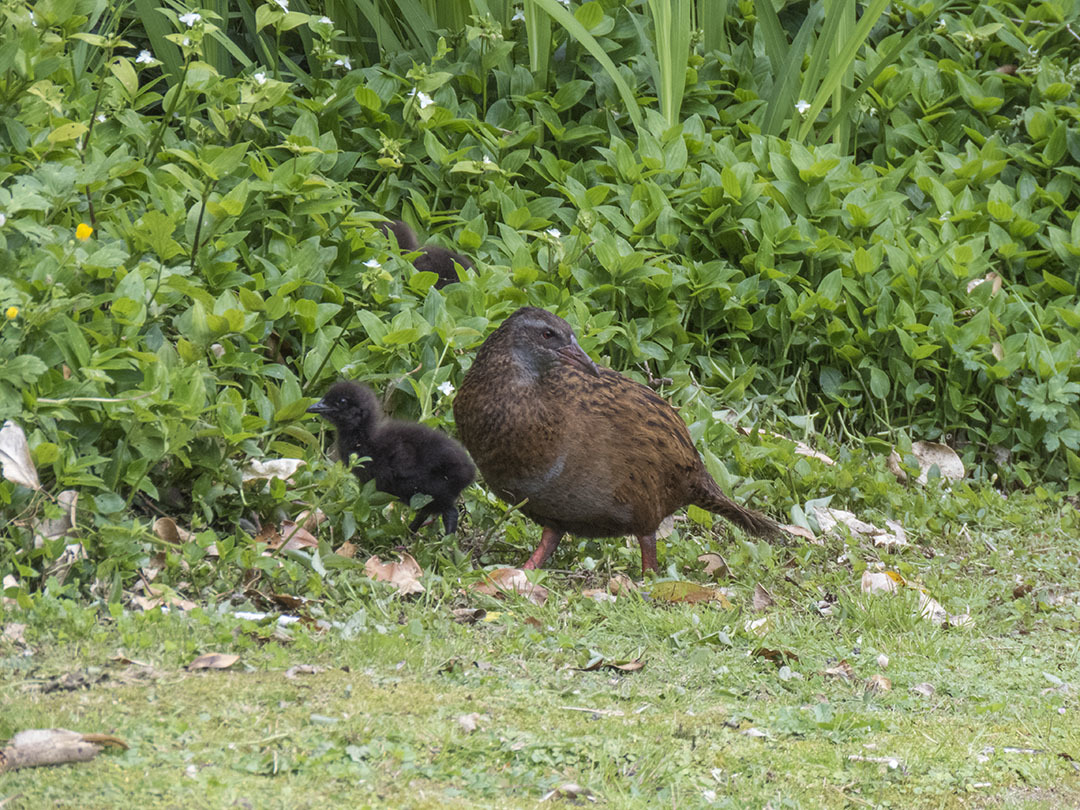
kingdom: Animalia
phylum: Chordata
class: Aves
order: Gruiformes
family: Rallidae
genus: Gallirallus
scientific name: Gallirallus australis
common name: Weka
